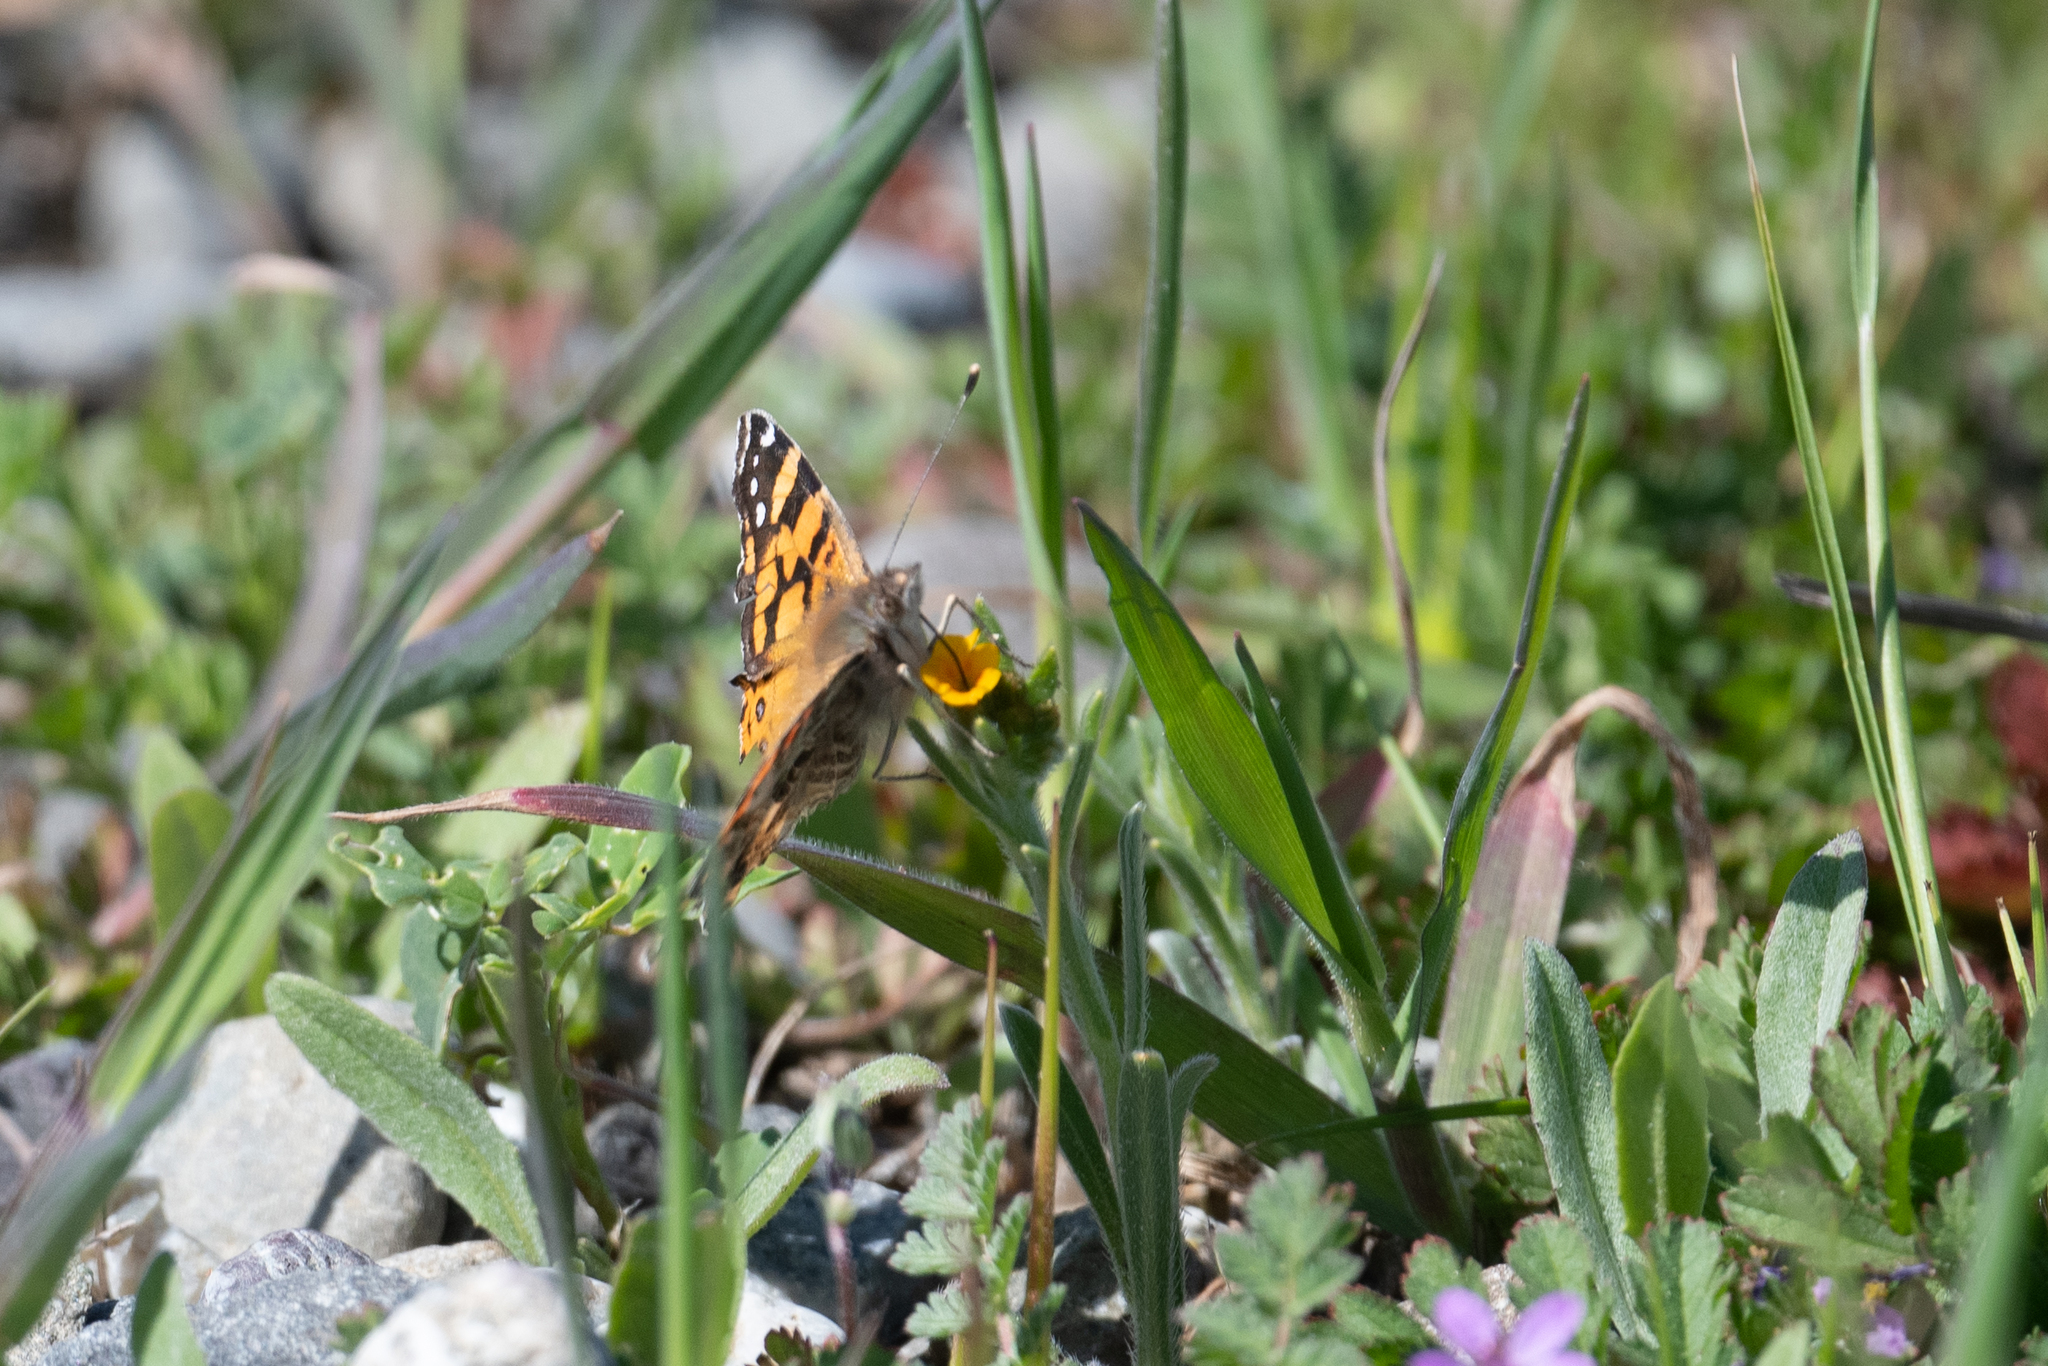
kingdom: Animalia
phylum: Arthropoda
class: Insecta
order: Lepidoptera
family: Nymphalidae
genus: Vanessa
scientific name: Vanessa annabella
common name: West coast lady
